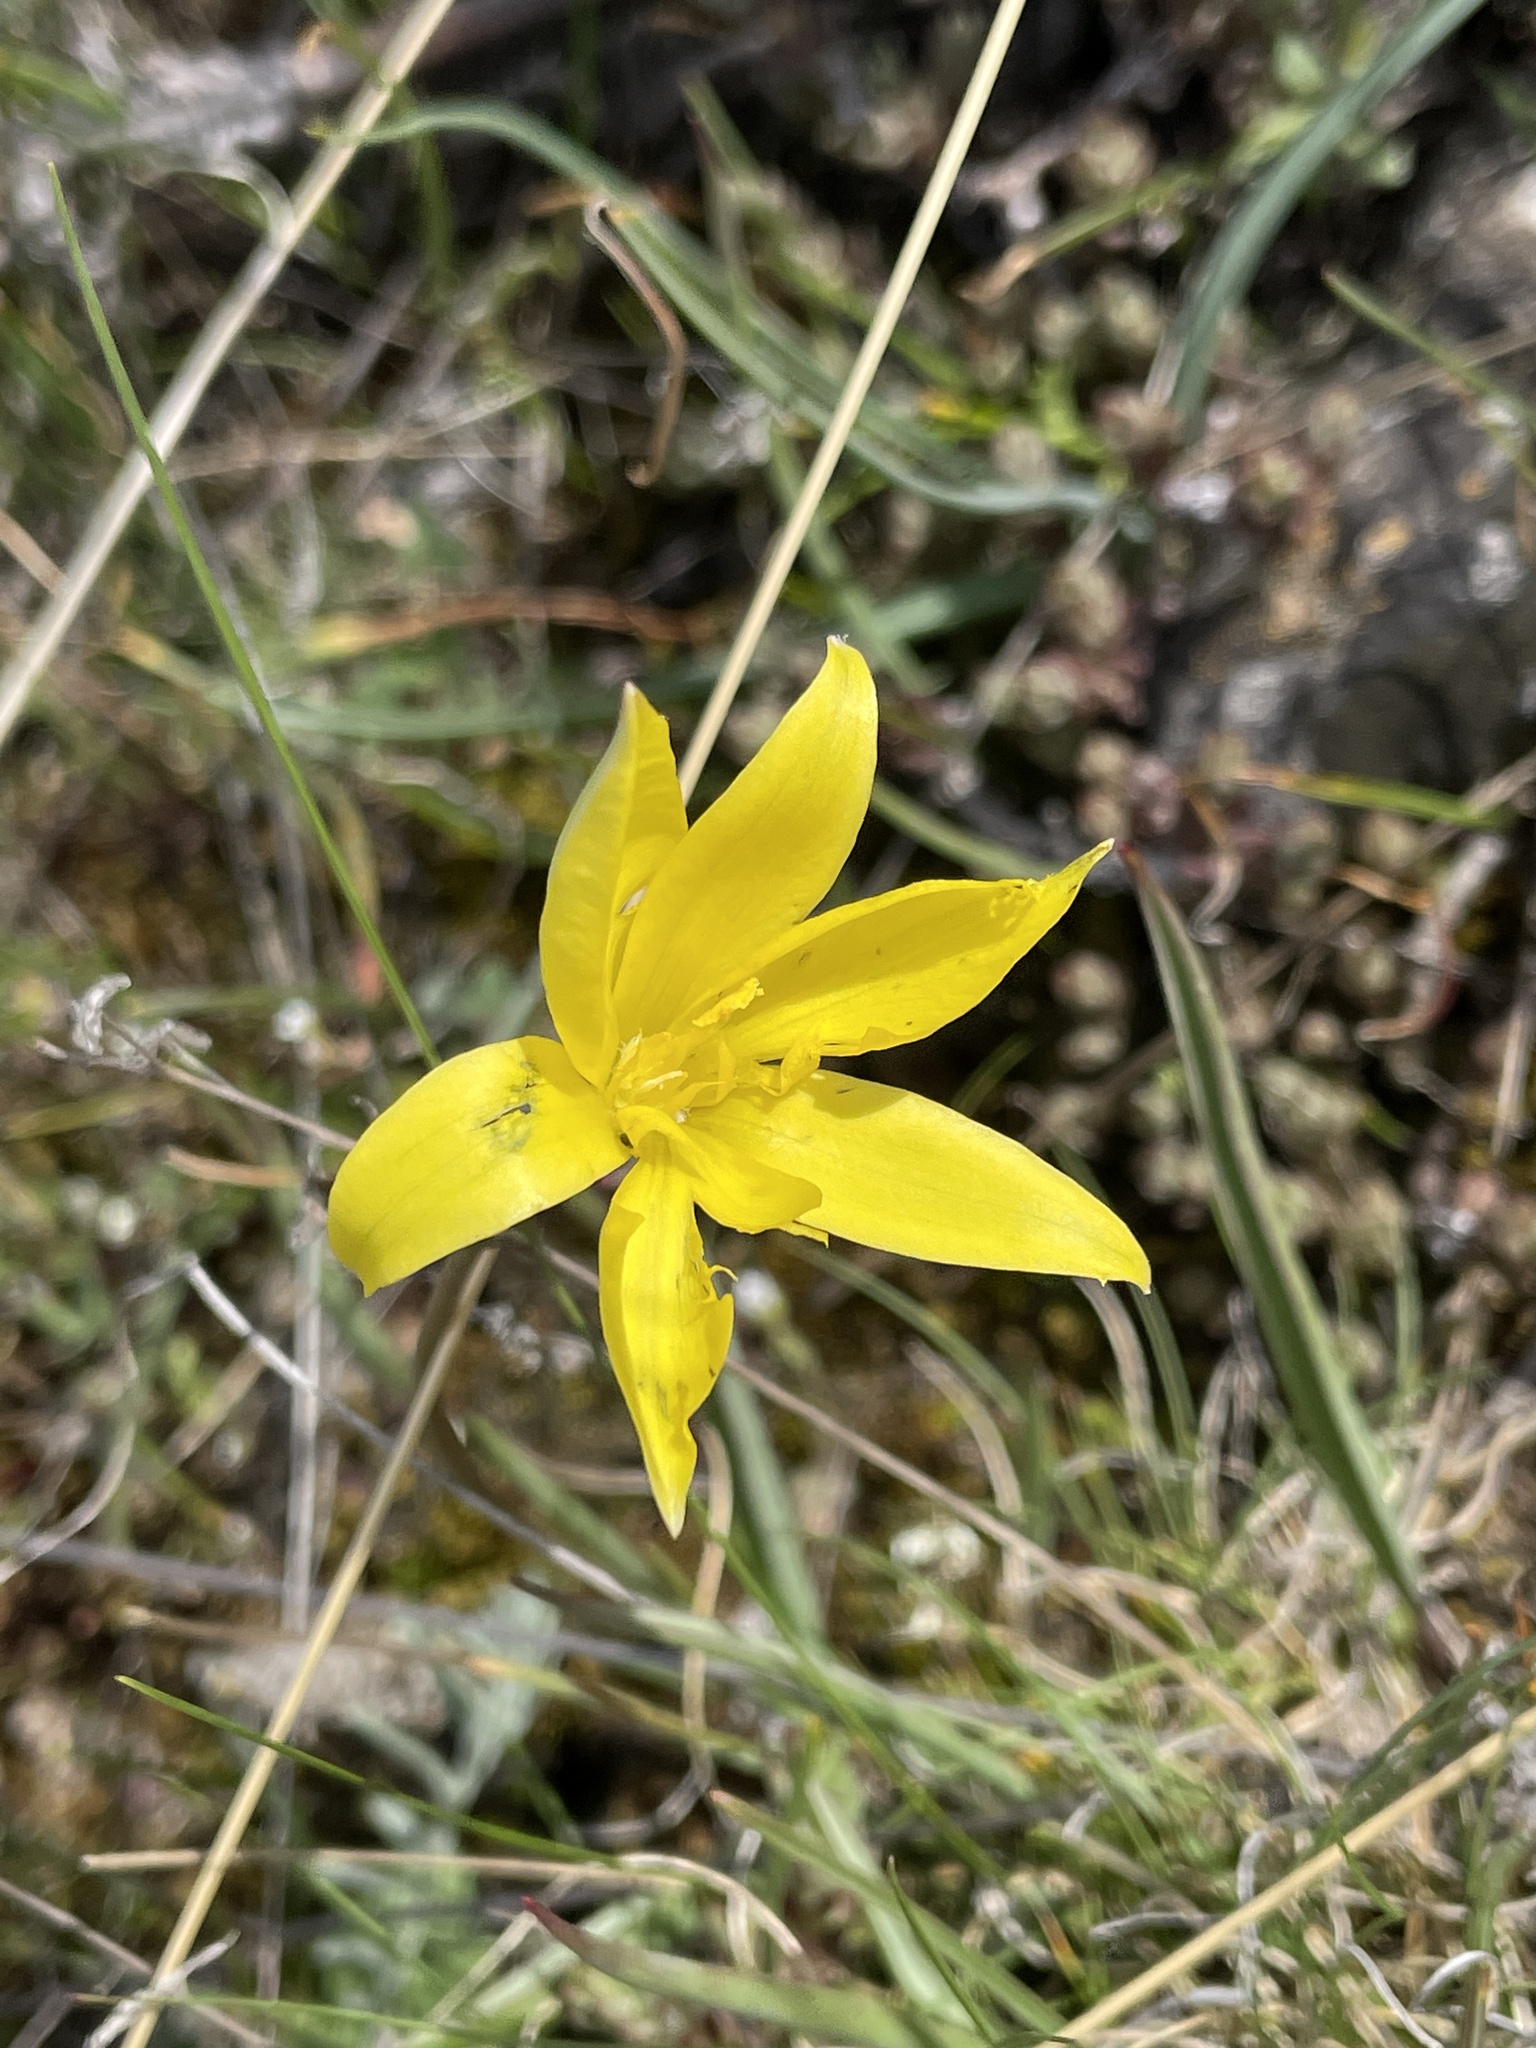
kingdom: Plantae
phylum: Tracheophyta
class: Liliopsida
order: Liliales
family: Liliaceae
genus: Tulipa
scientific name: Tulipa sylvestris
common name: Wild tulip
